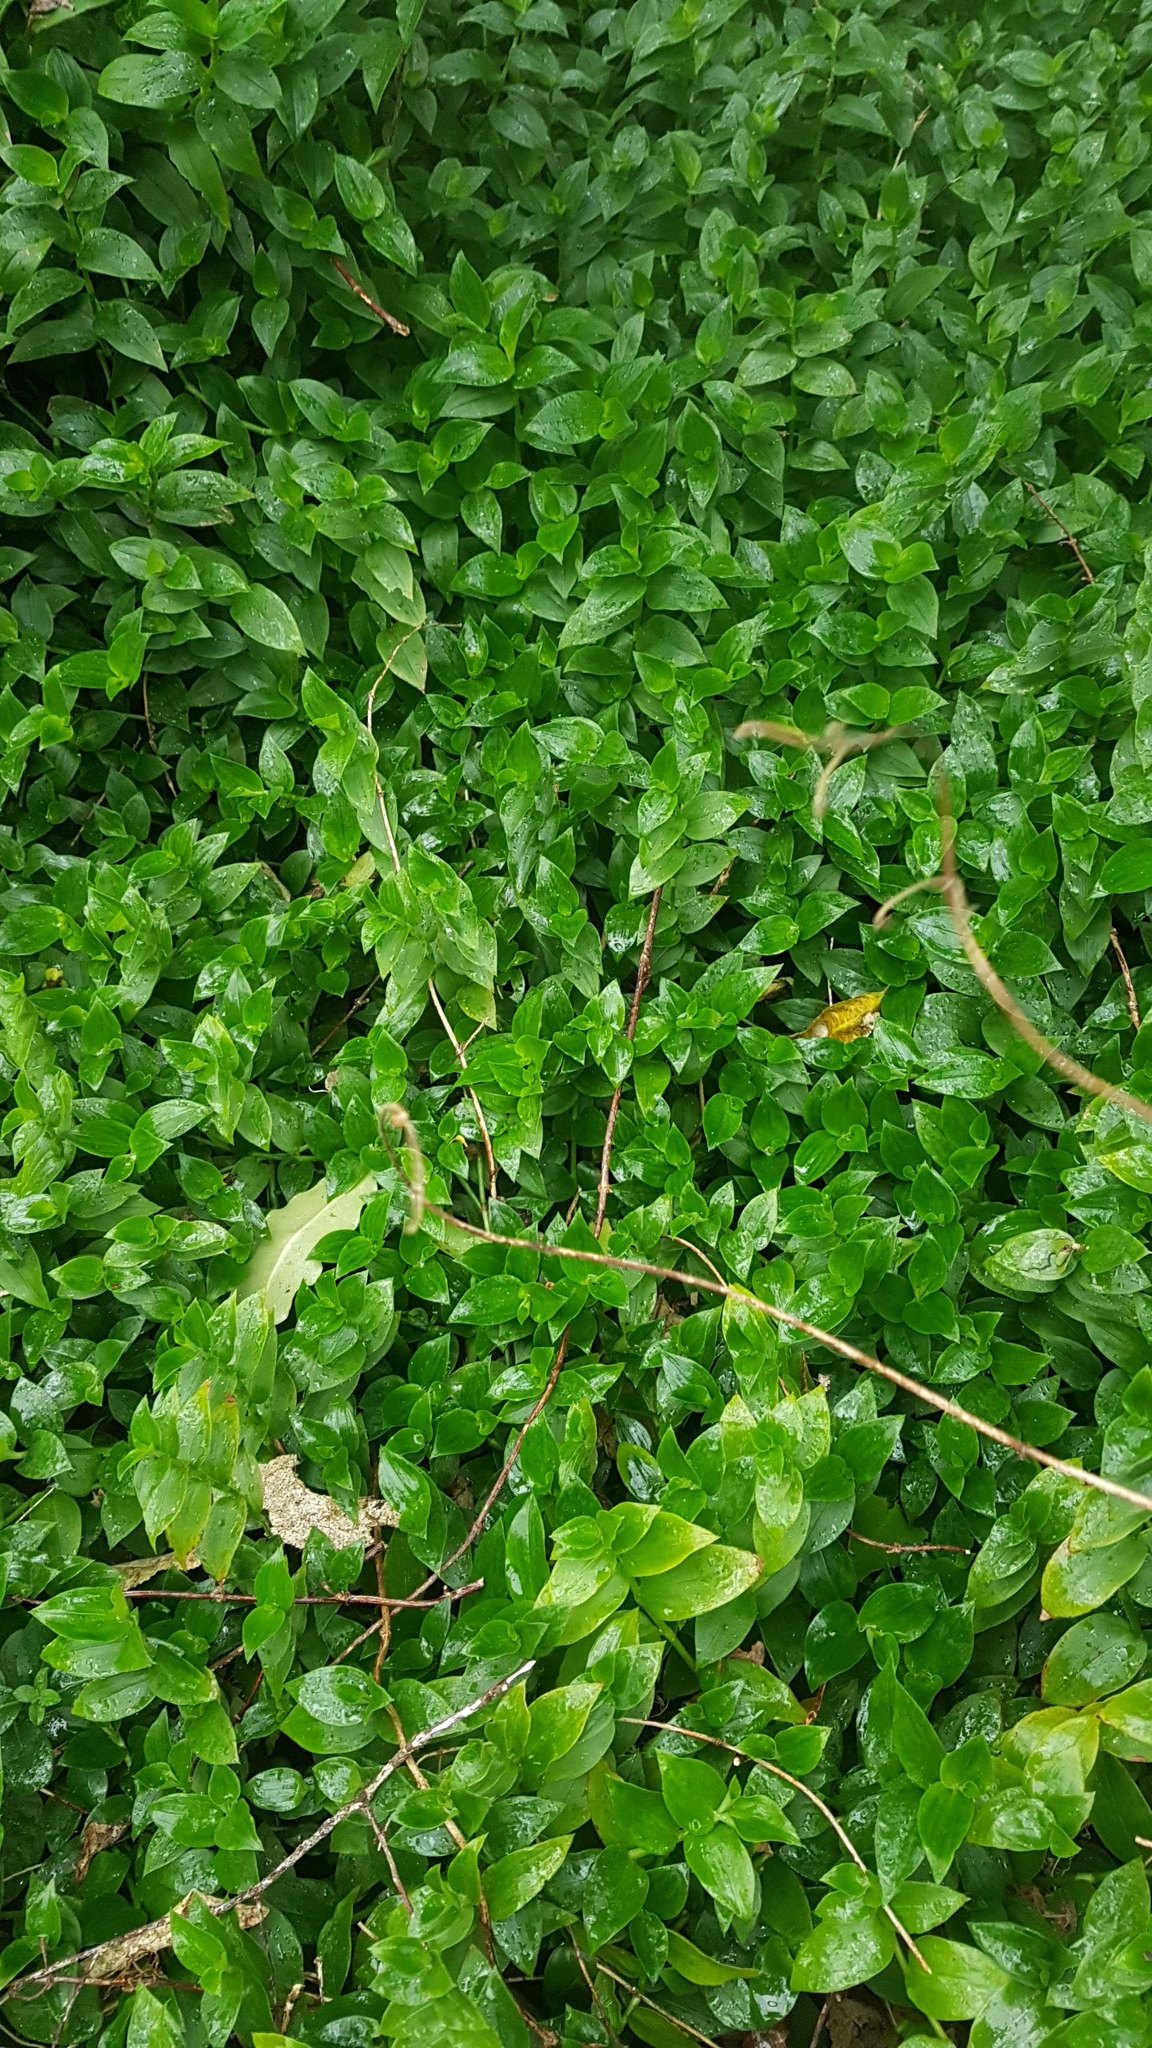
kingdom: Plantae
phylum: Tracheophyta
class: Liliopsida
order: Commelinales
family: Commelinaceae
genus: Tradescantia
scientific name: Tradescantia fluminensis
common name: Wandering-jew
